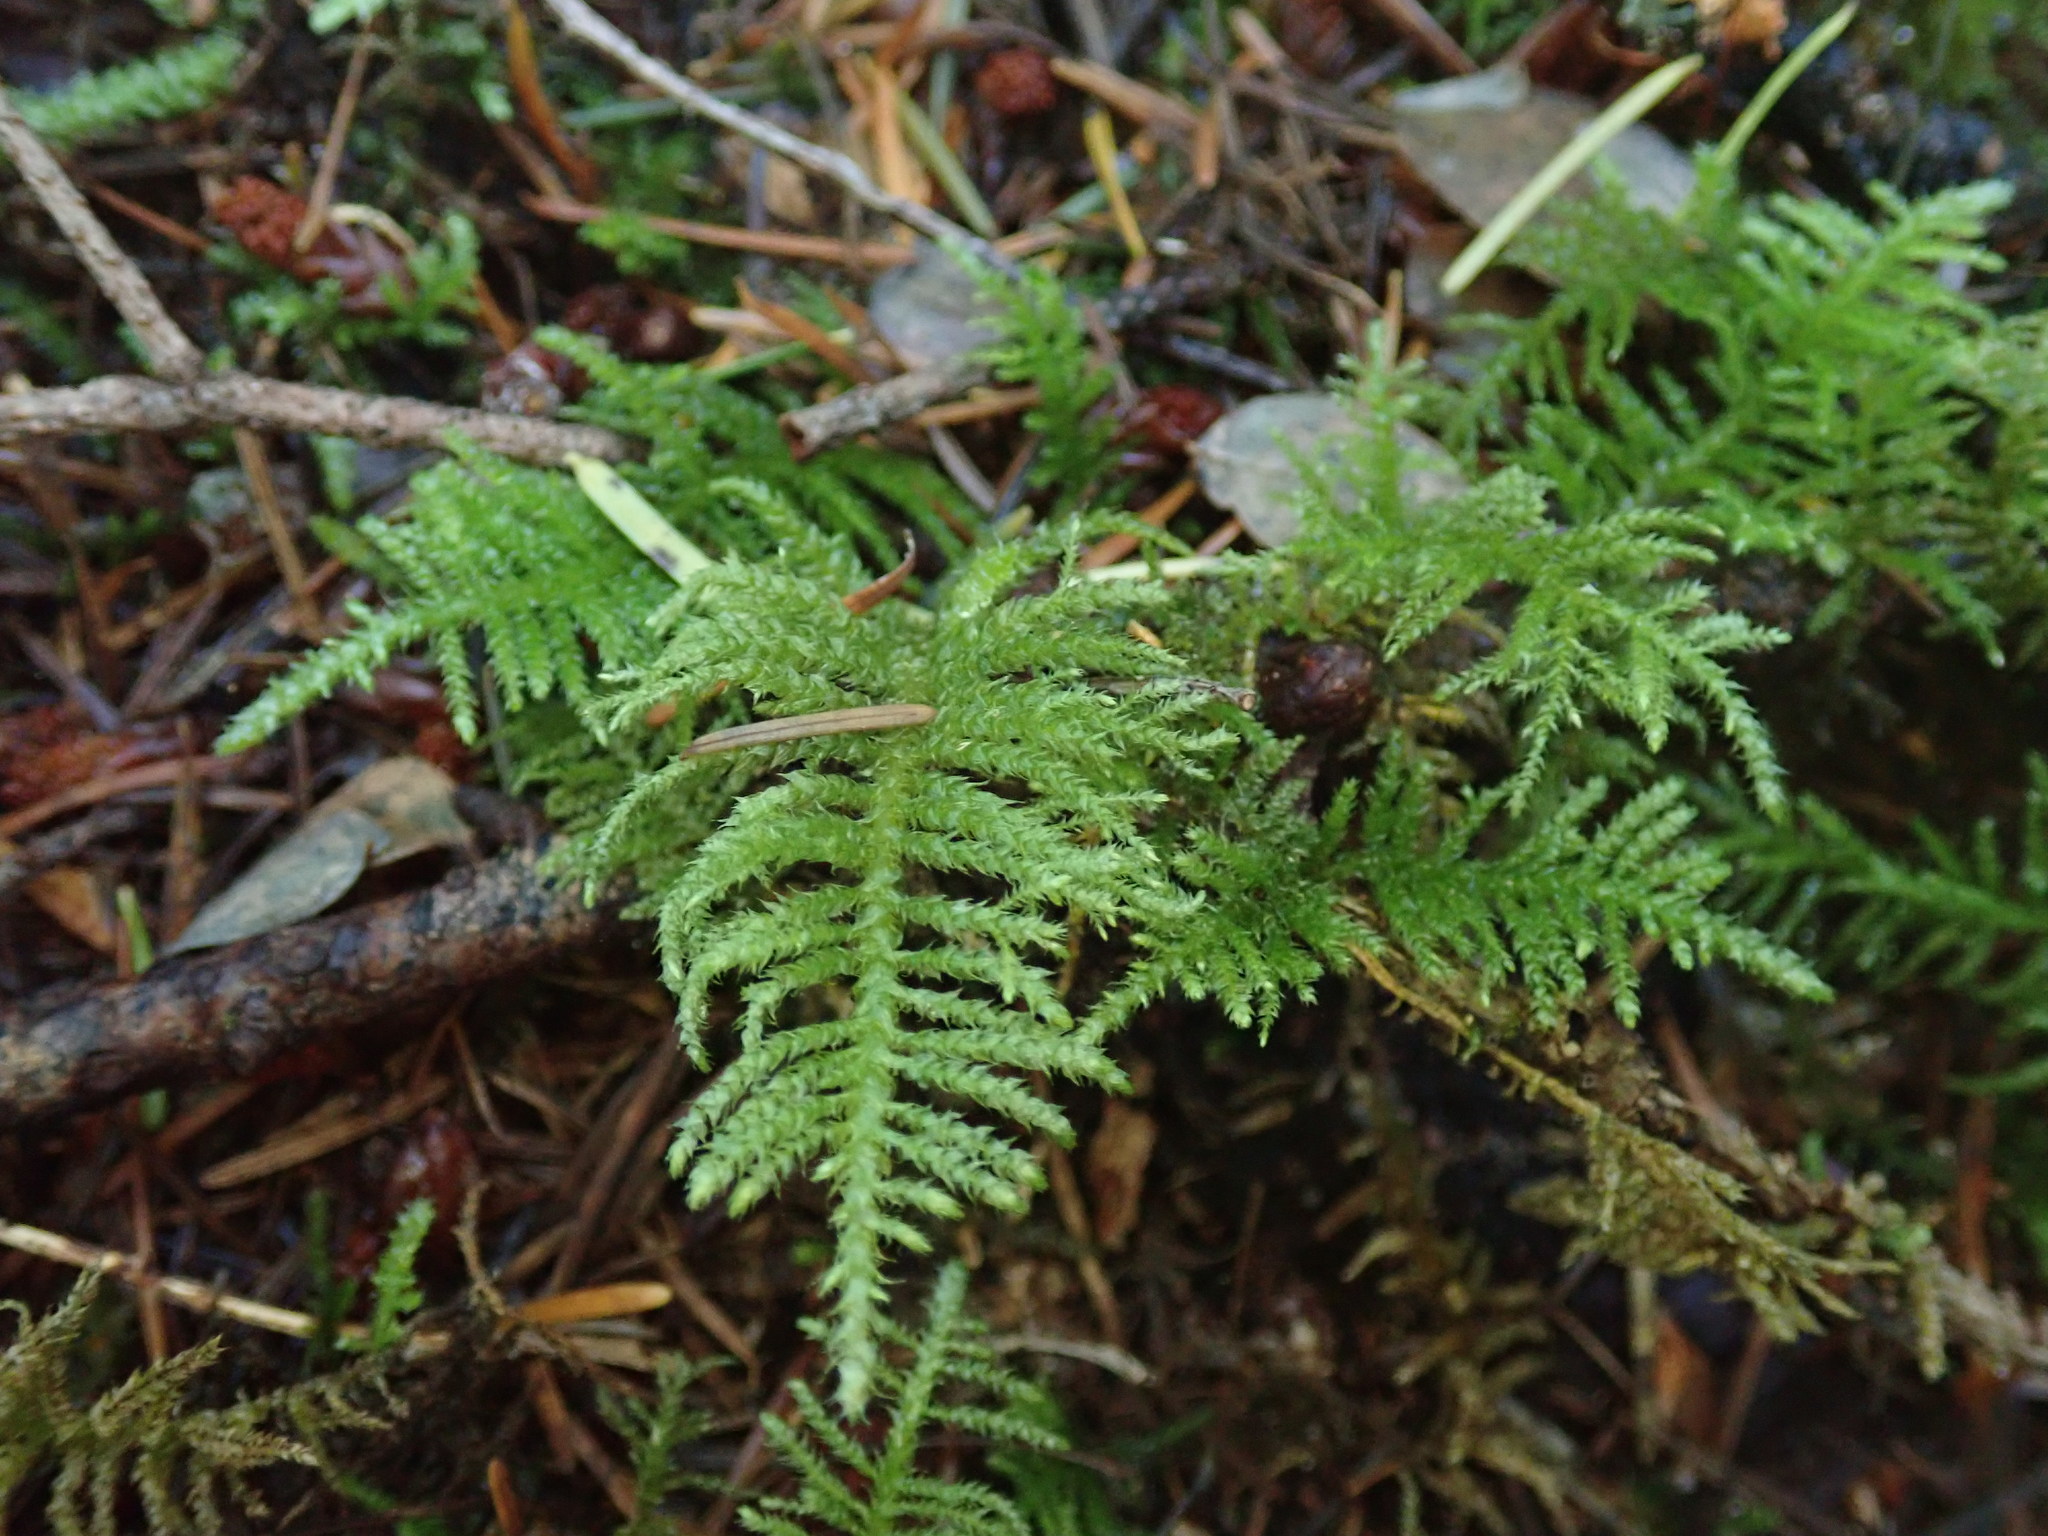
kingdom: Plantae
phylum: Bryophyta
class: Bryopsida
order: Hypnales
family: Brachytheciaceae
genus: Kindbergia
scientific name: Kindbergia oregana
